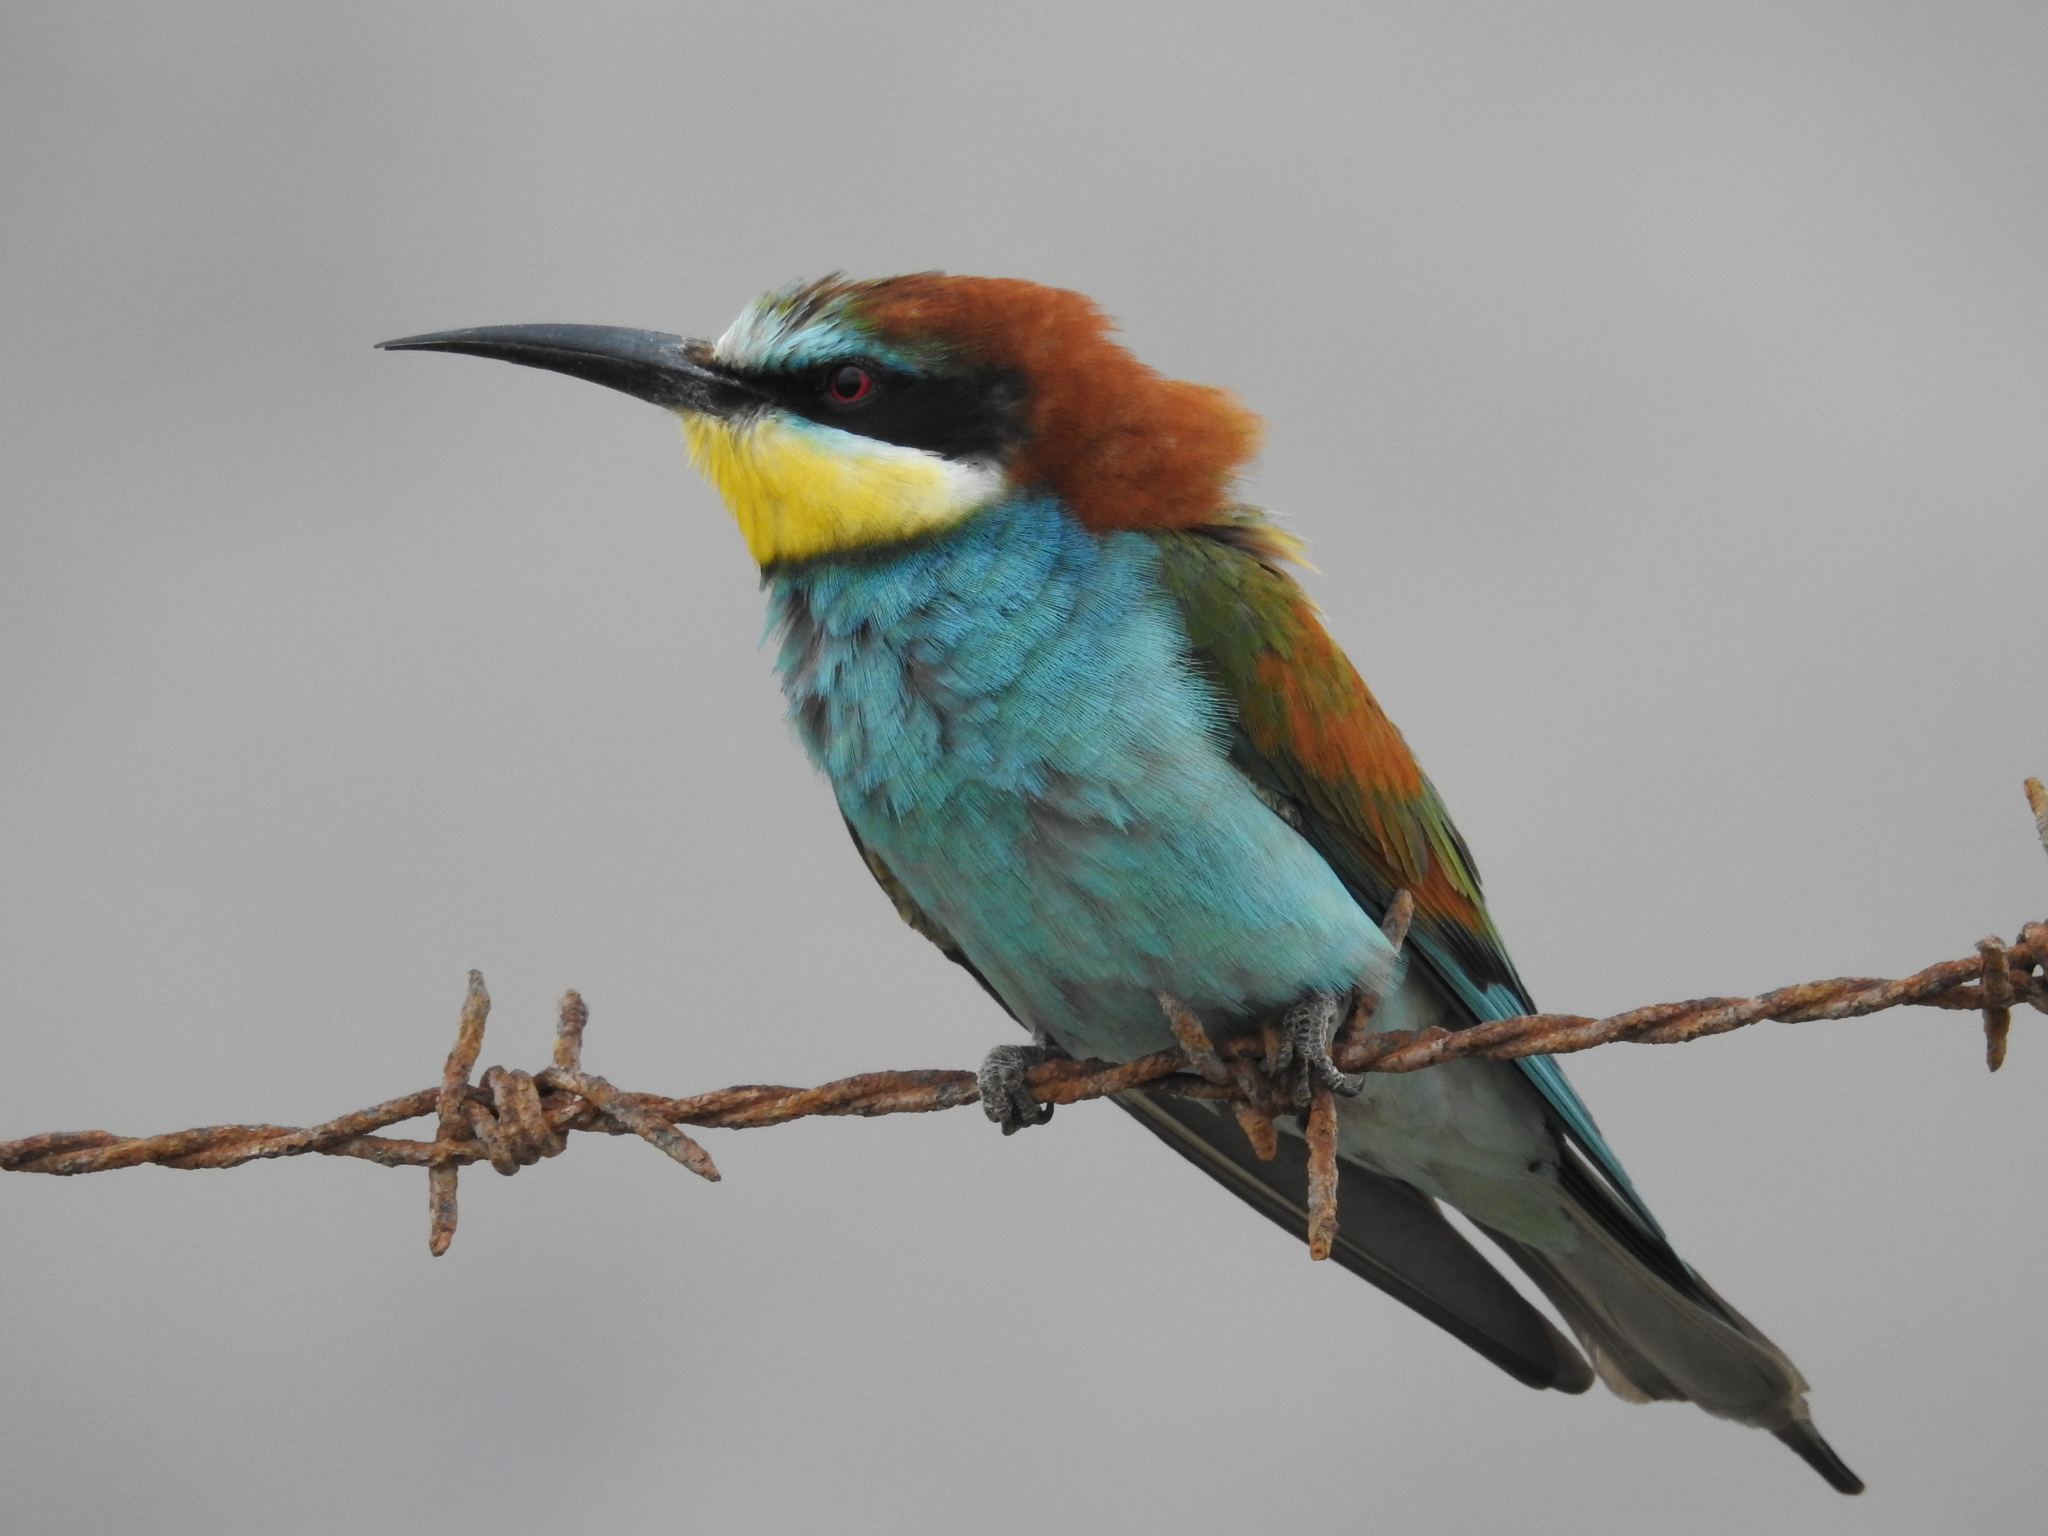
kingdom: Animalia
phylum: Chordata
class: Aves
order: Coraciiformes
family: Meropidae
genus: Merops
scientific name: Merops apiaster
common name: European bee-eater
